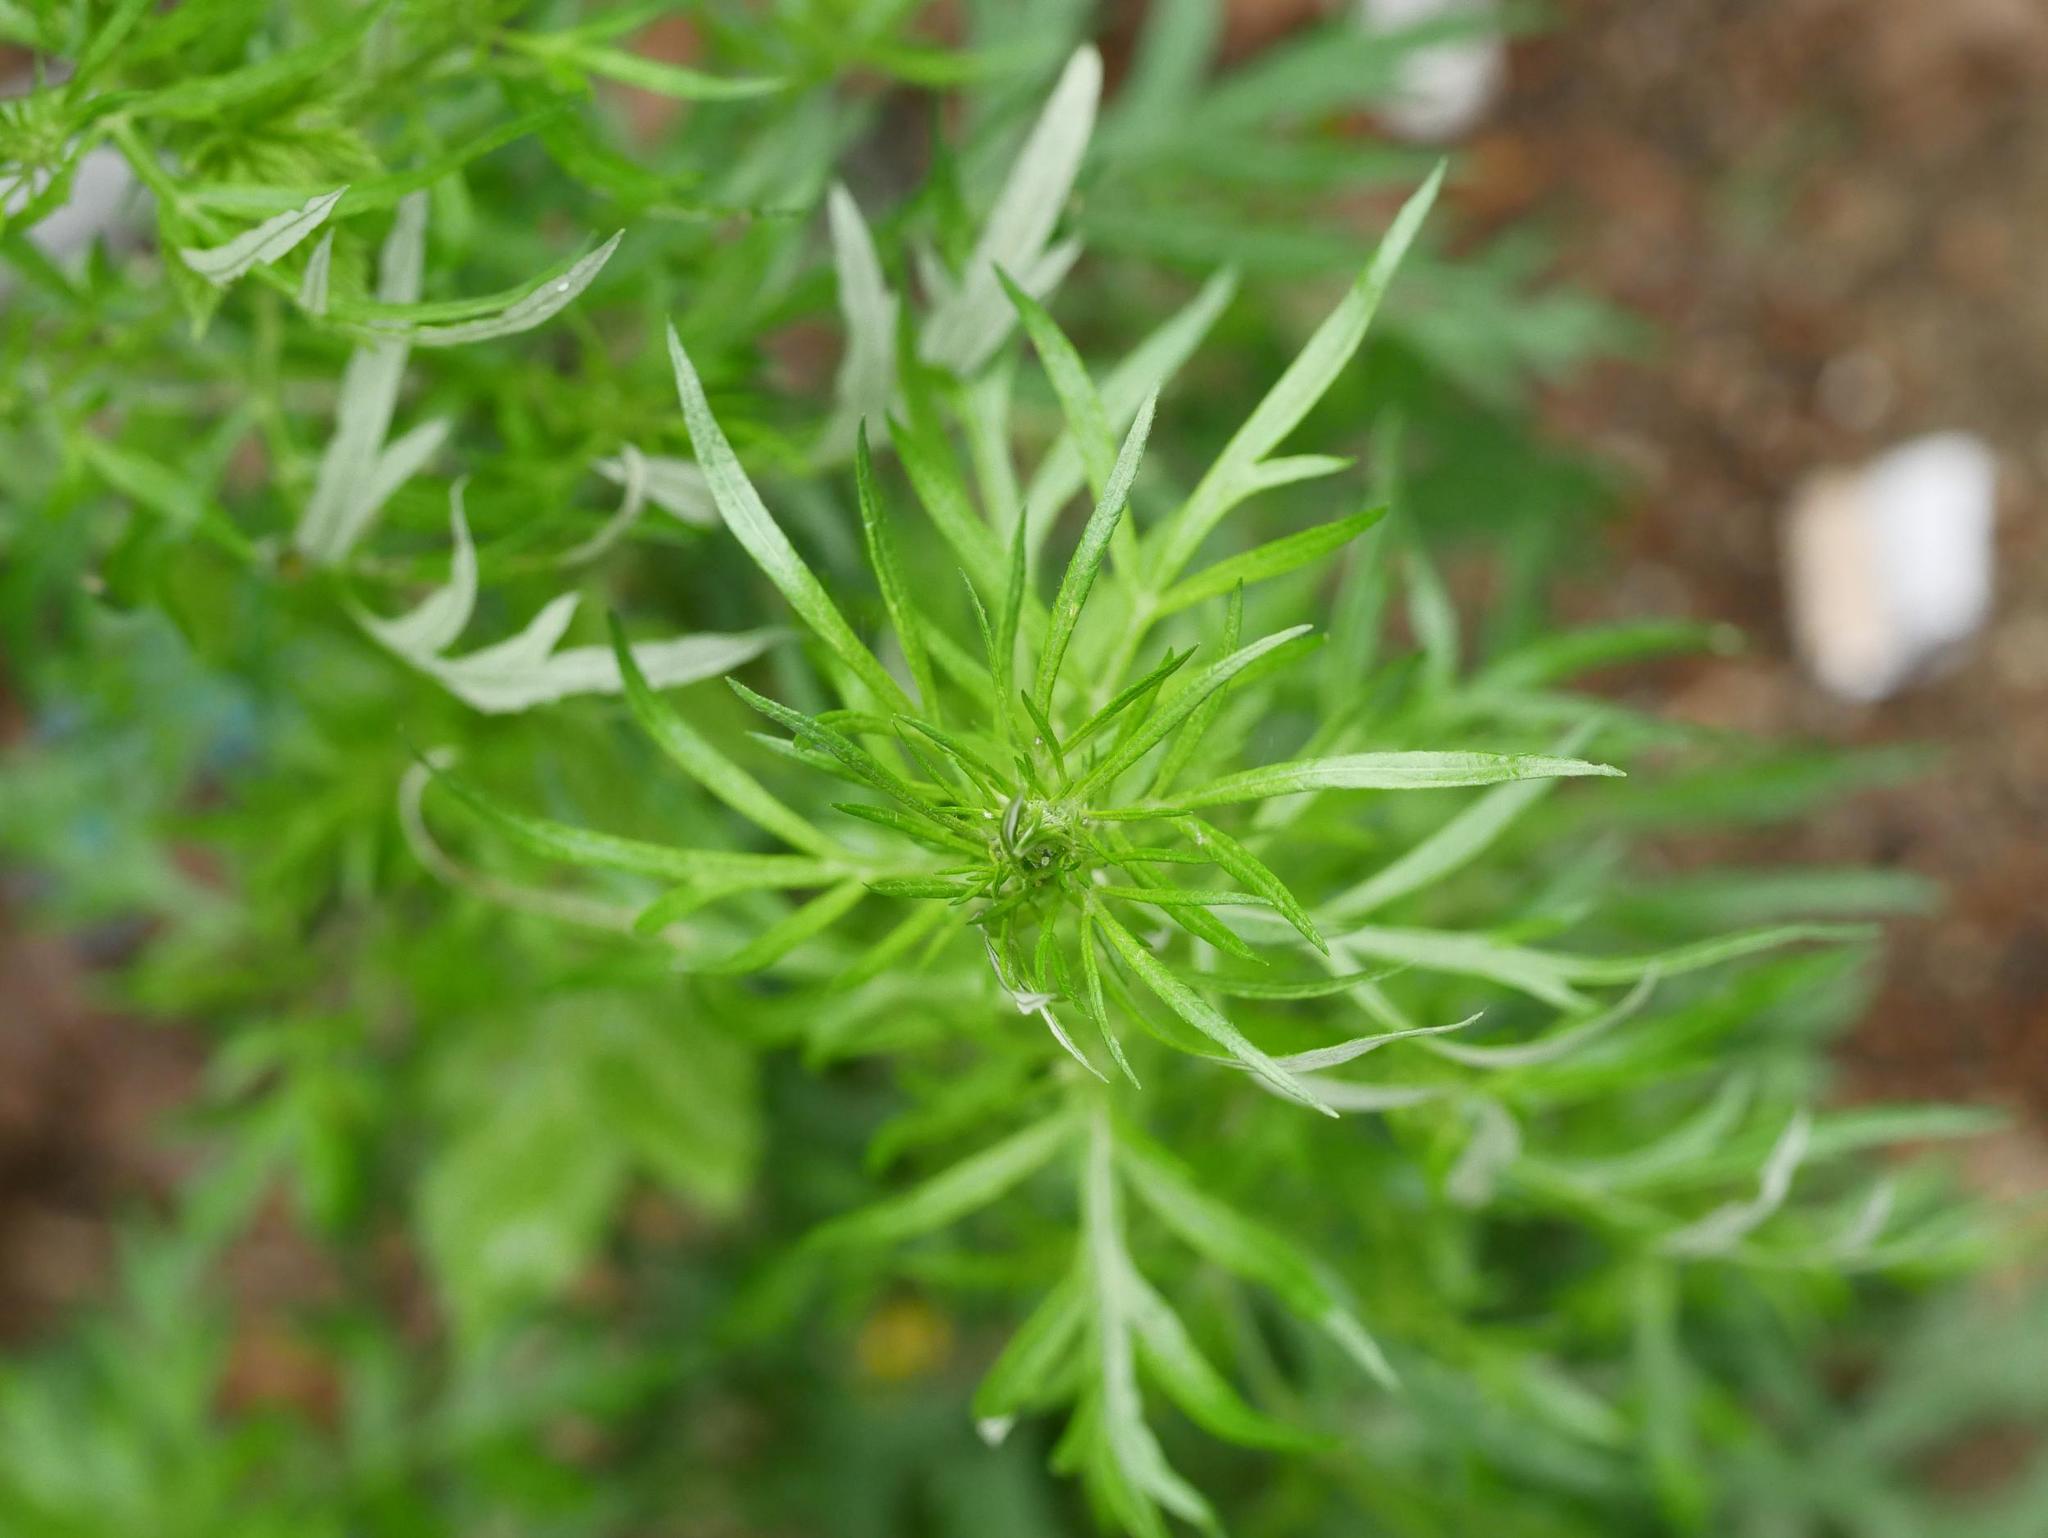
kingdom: Plantae
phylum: Tracheophyta
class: Magnoliopsida
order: Asterales
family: Asteraceae
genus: Artemisia
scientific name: Artemisia vulgaris
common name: Mugwort
